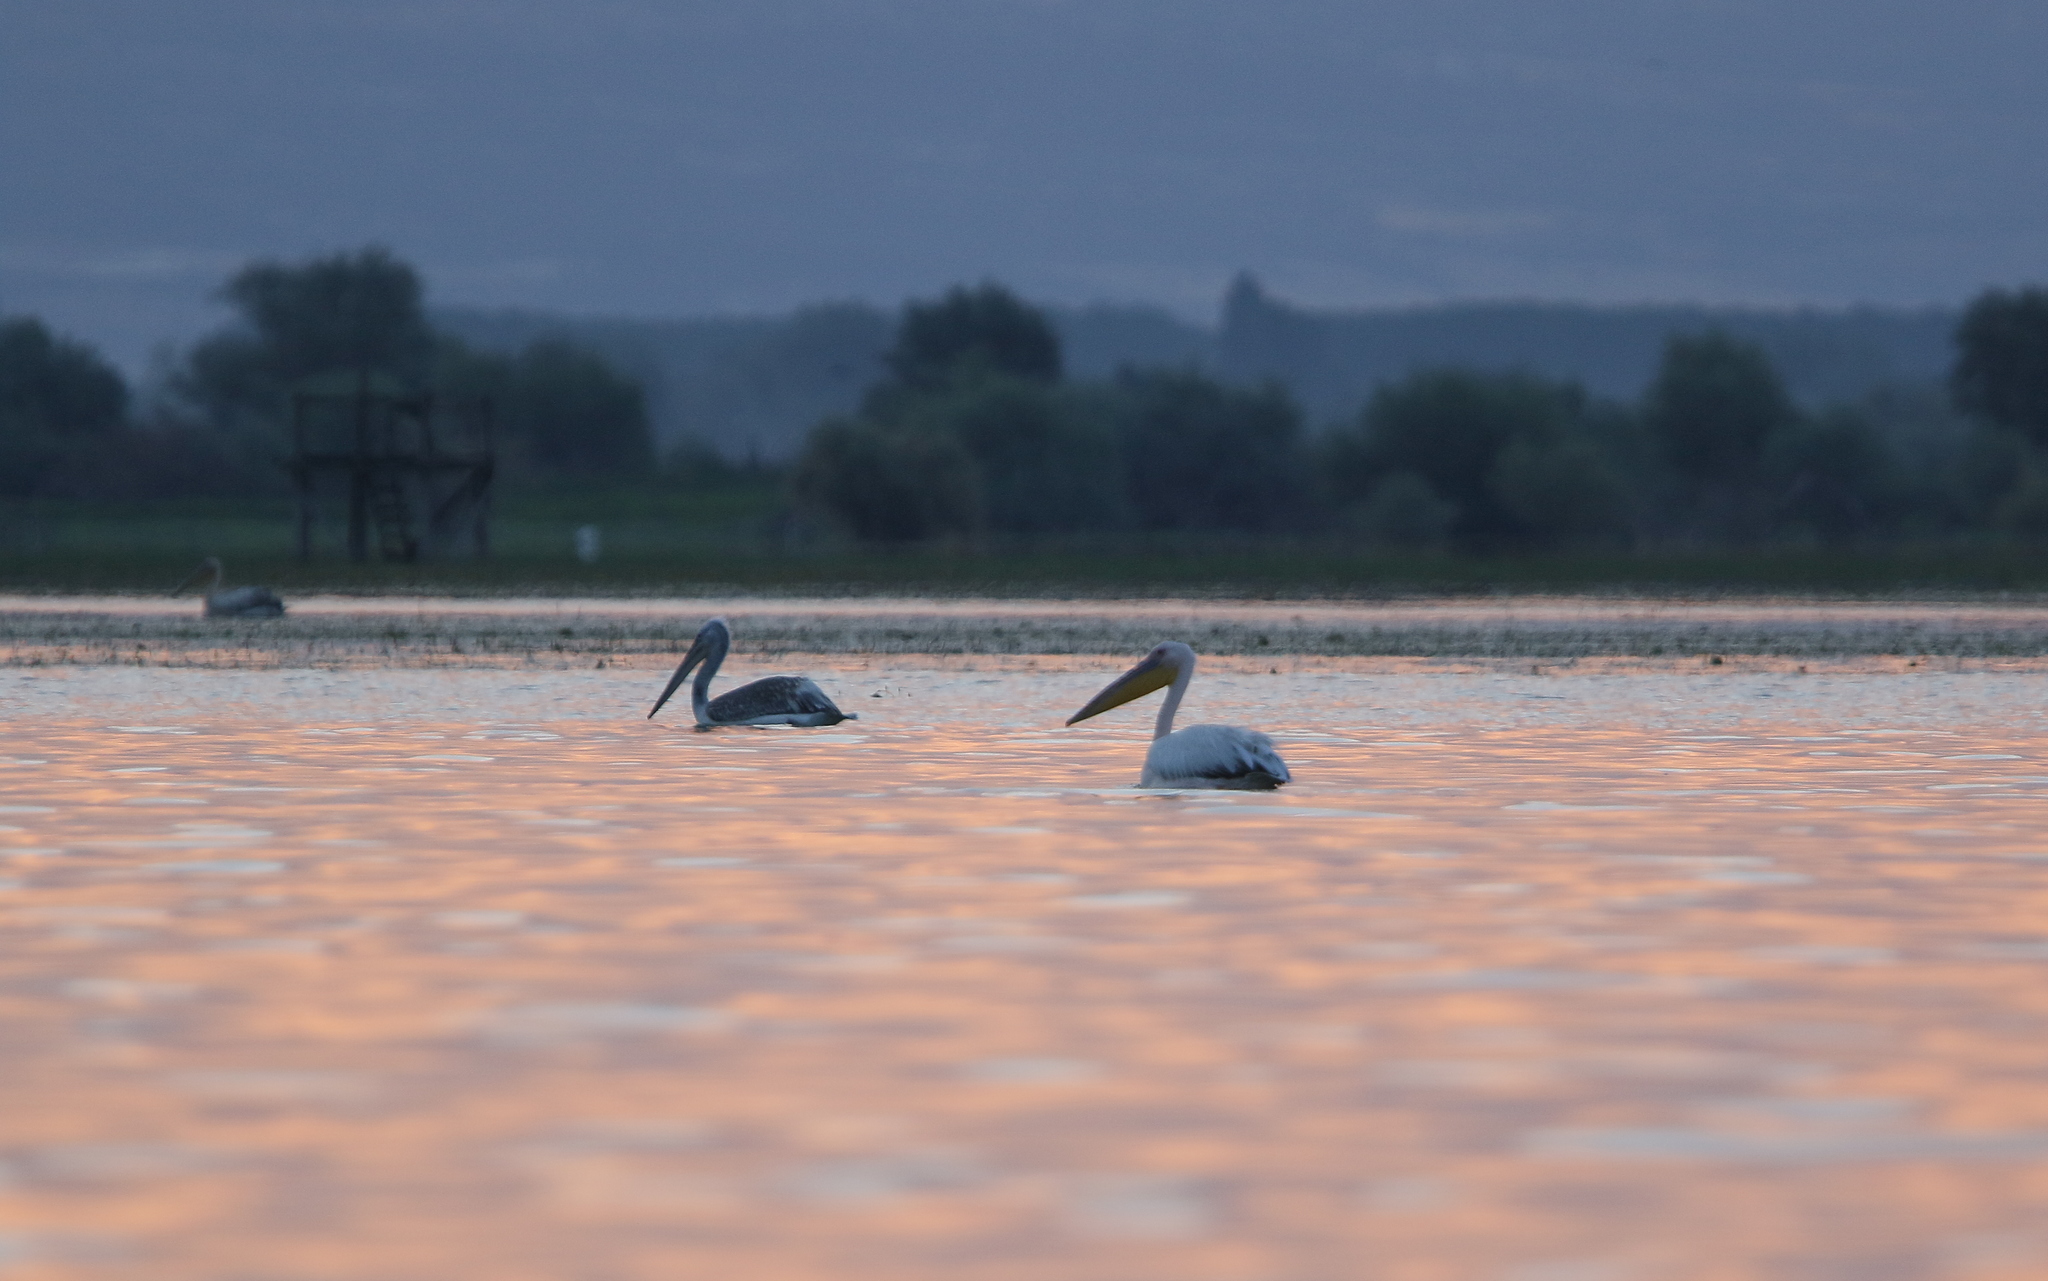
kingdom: Animalia
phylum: Chordata
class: Aves
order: Pelecaniformes
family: Pelecanidae
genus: Pelecanus
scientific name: Pelecanus onocrotalus
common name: Great white pelican
